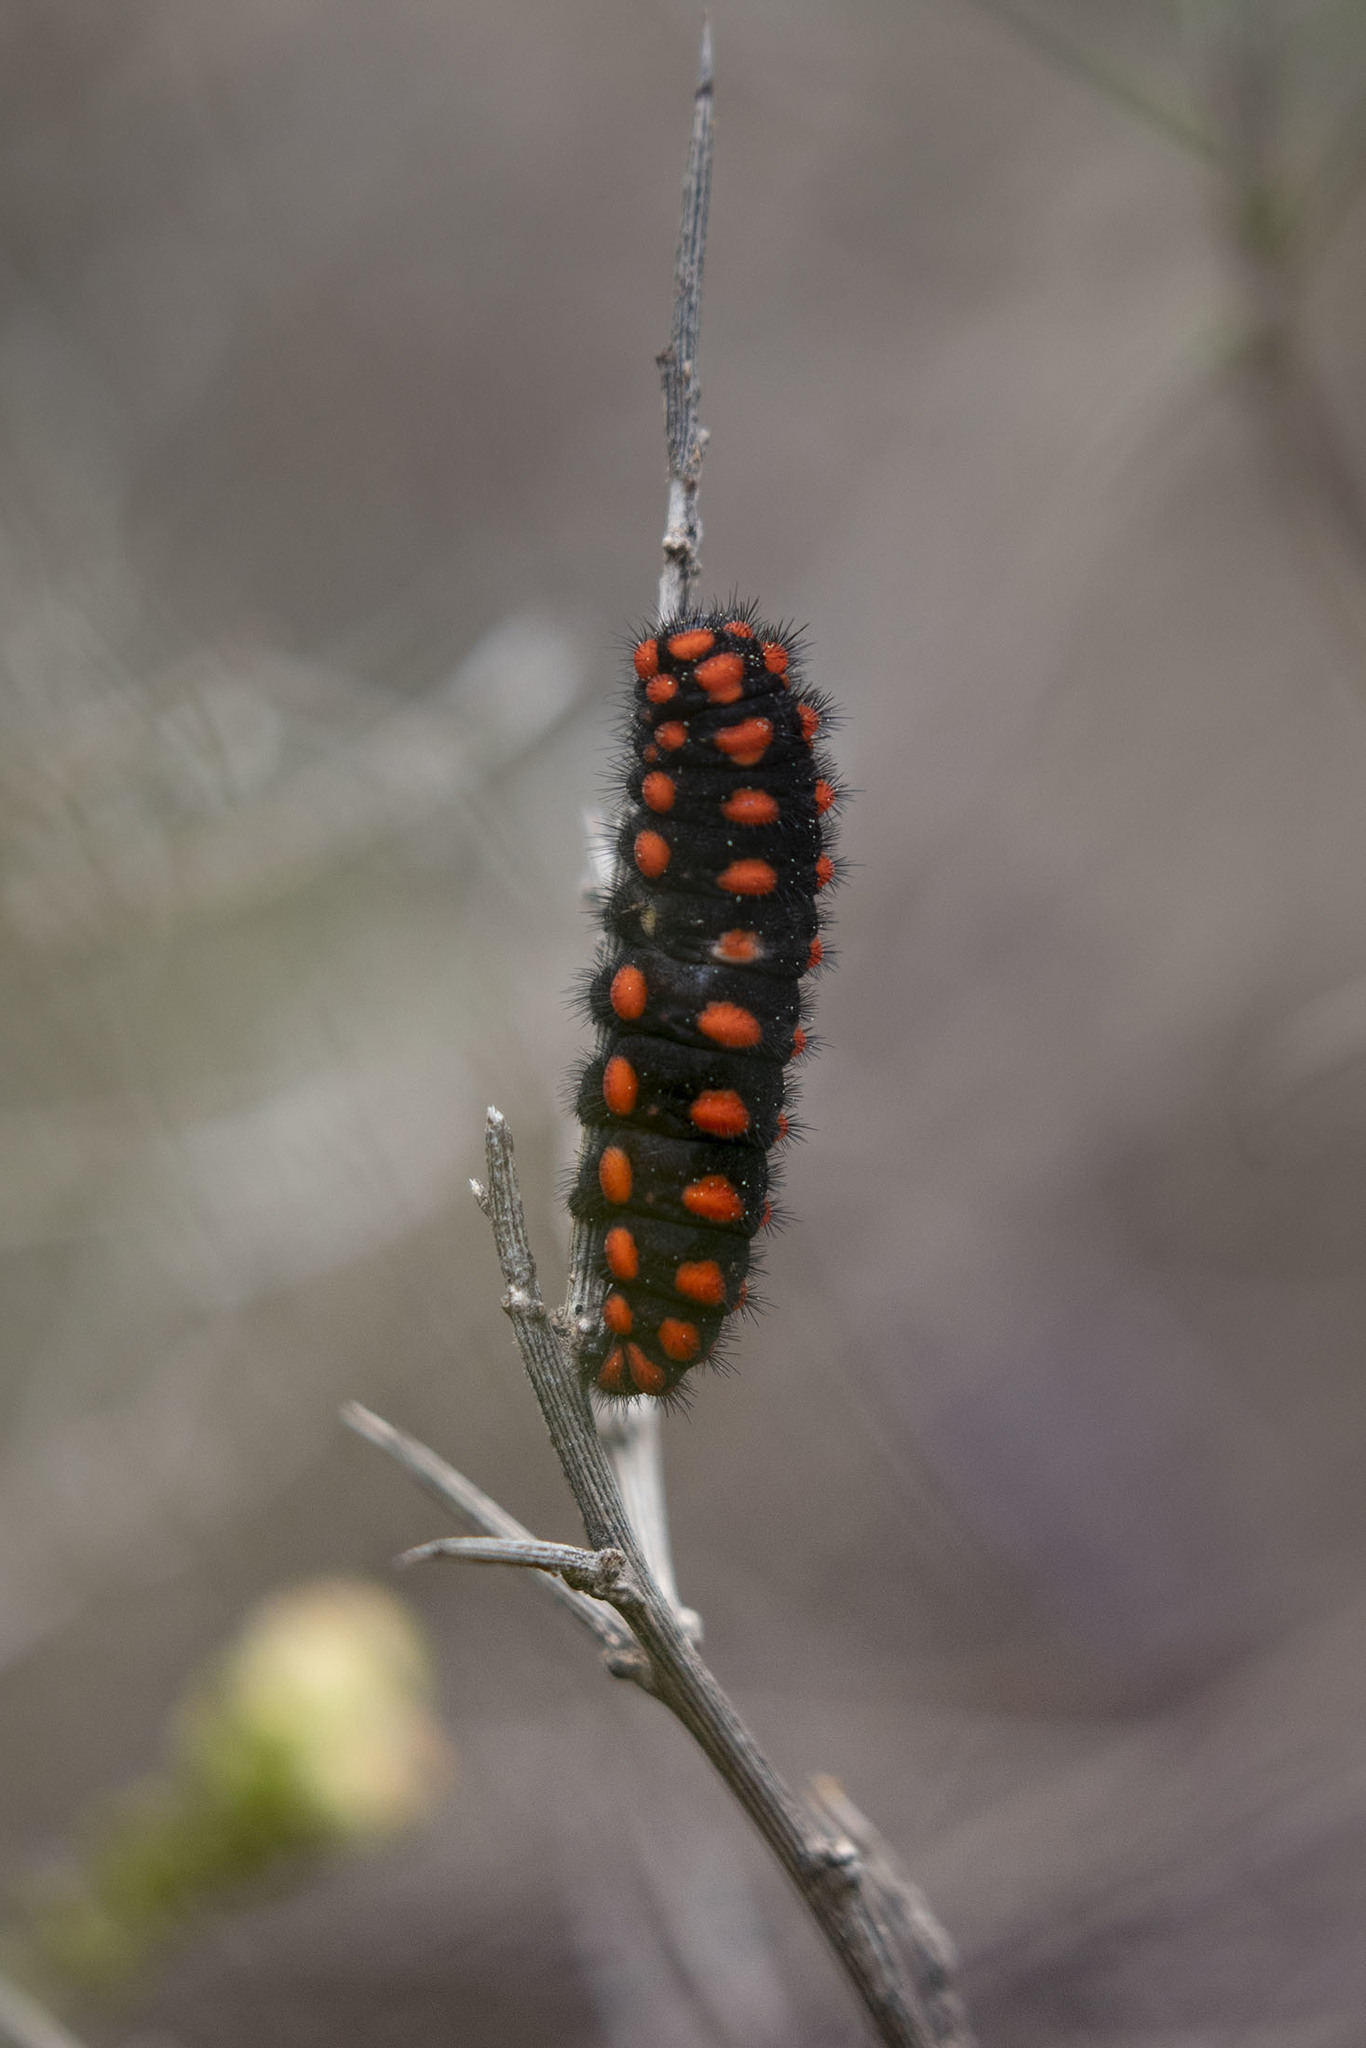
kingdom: Animalia
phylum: Arthropoda
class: Insecta
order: Lepidoptera
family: Papilionidae
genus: Archon
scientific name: Archon apollinus
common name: False apollo
